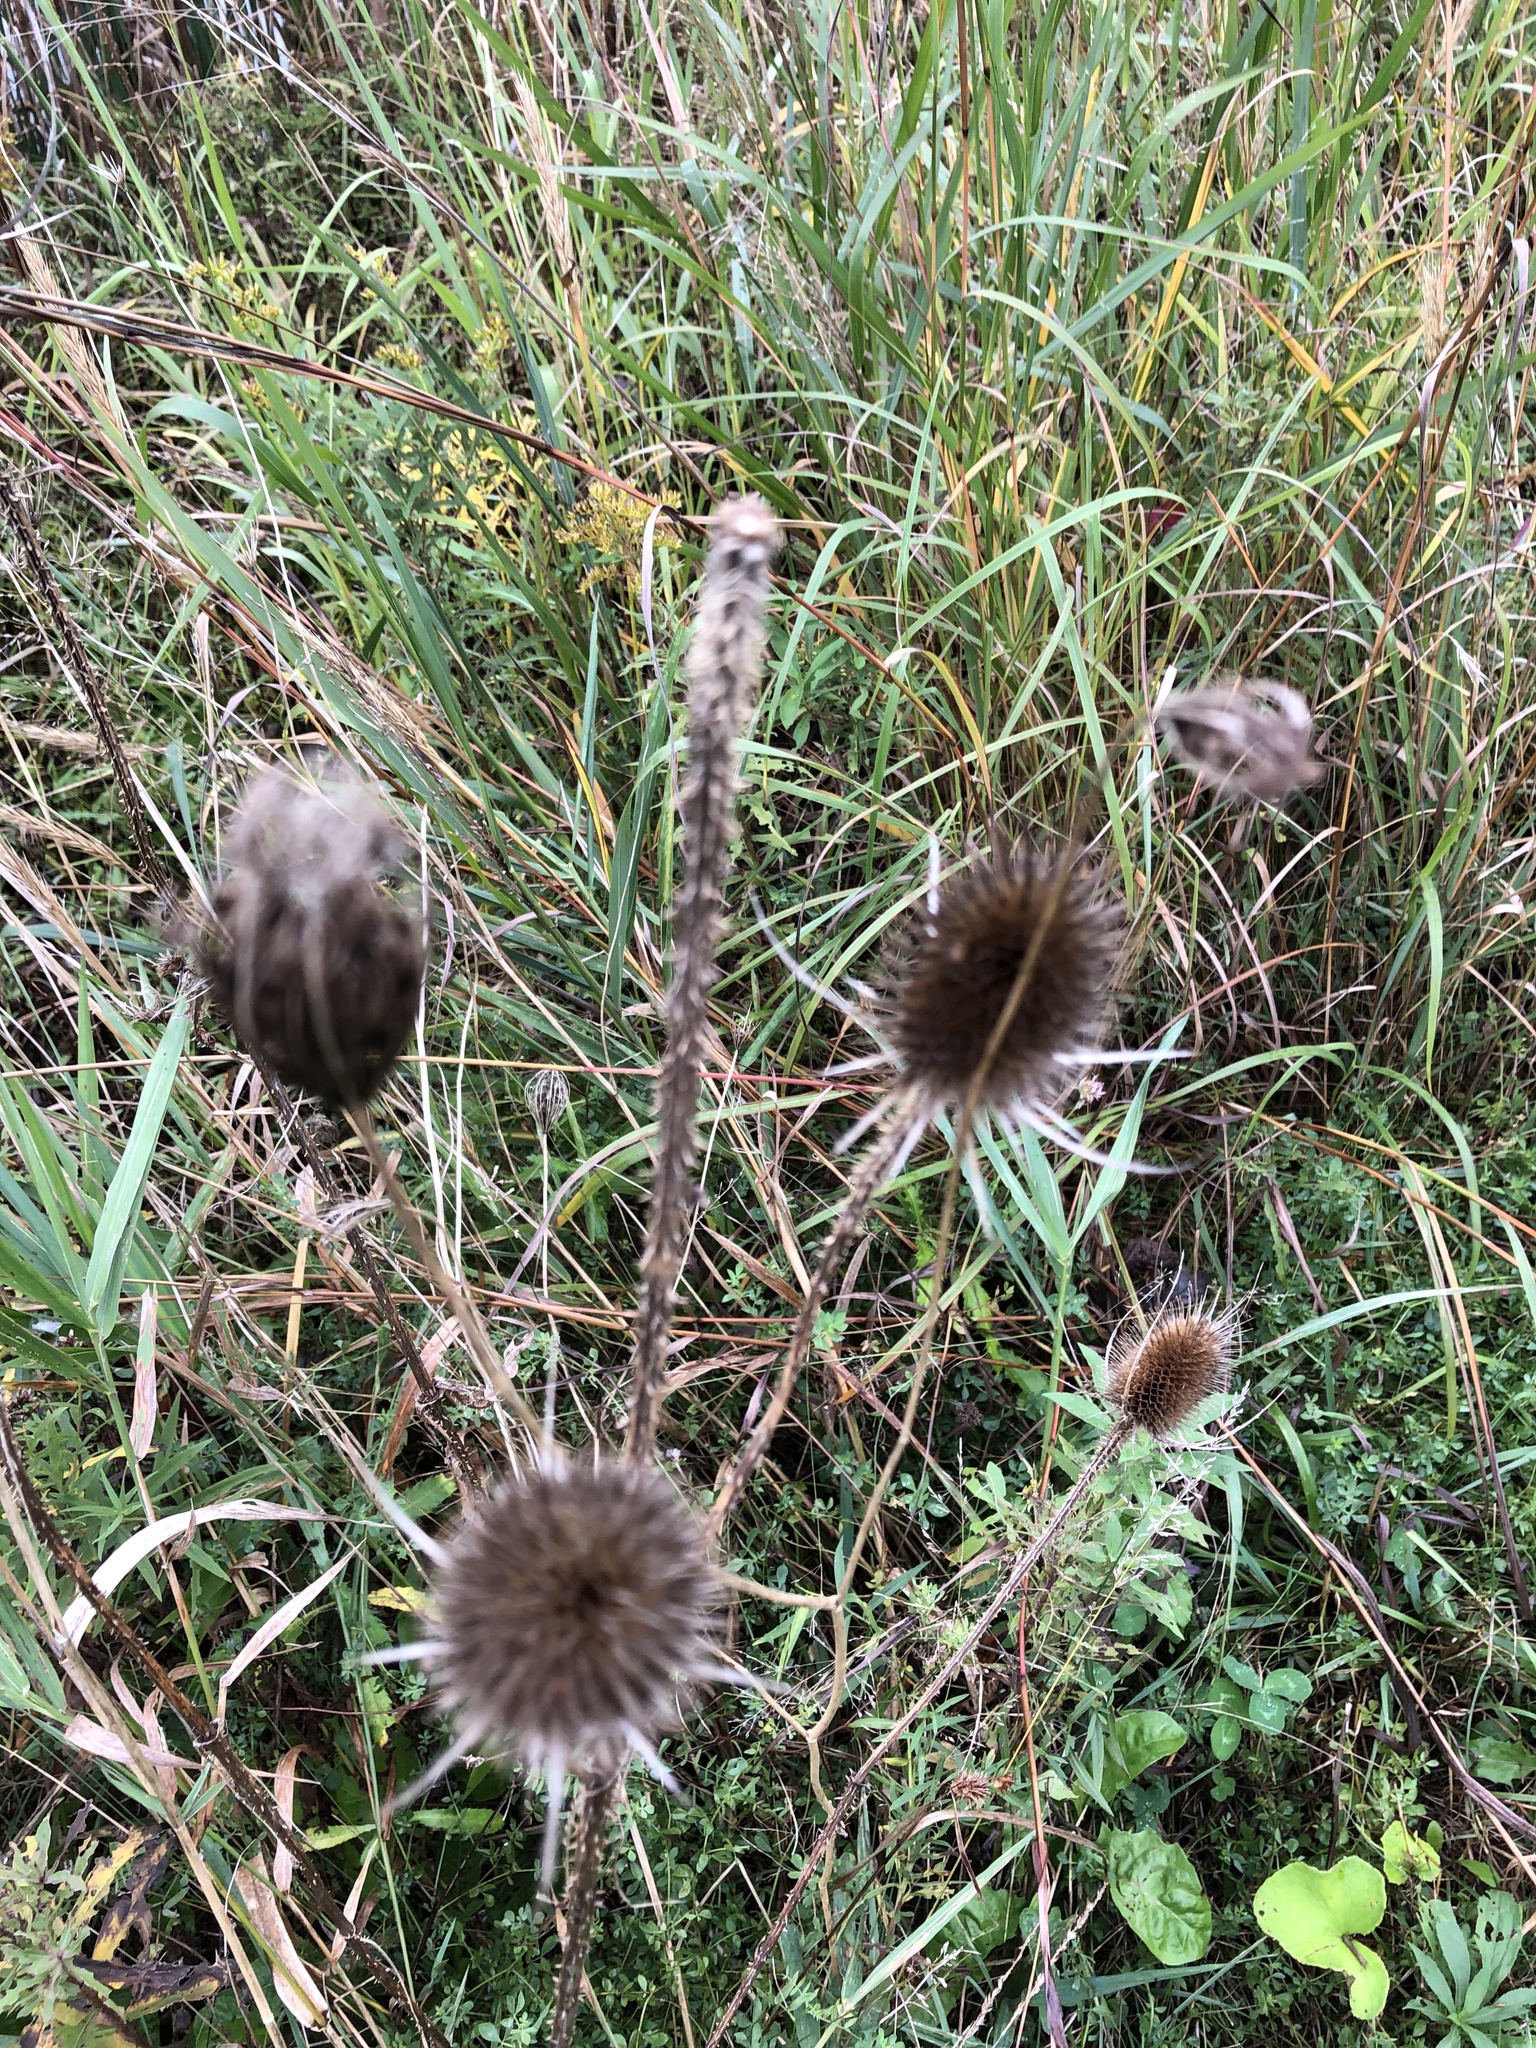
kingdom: Plantae
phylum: Tracheophyta
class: Magnoliopsida
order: Dipsacales
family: Caprifoliaceae
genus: Dipsacus
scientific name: Dipsacus fullonum
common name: Teasel
